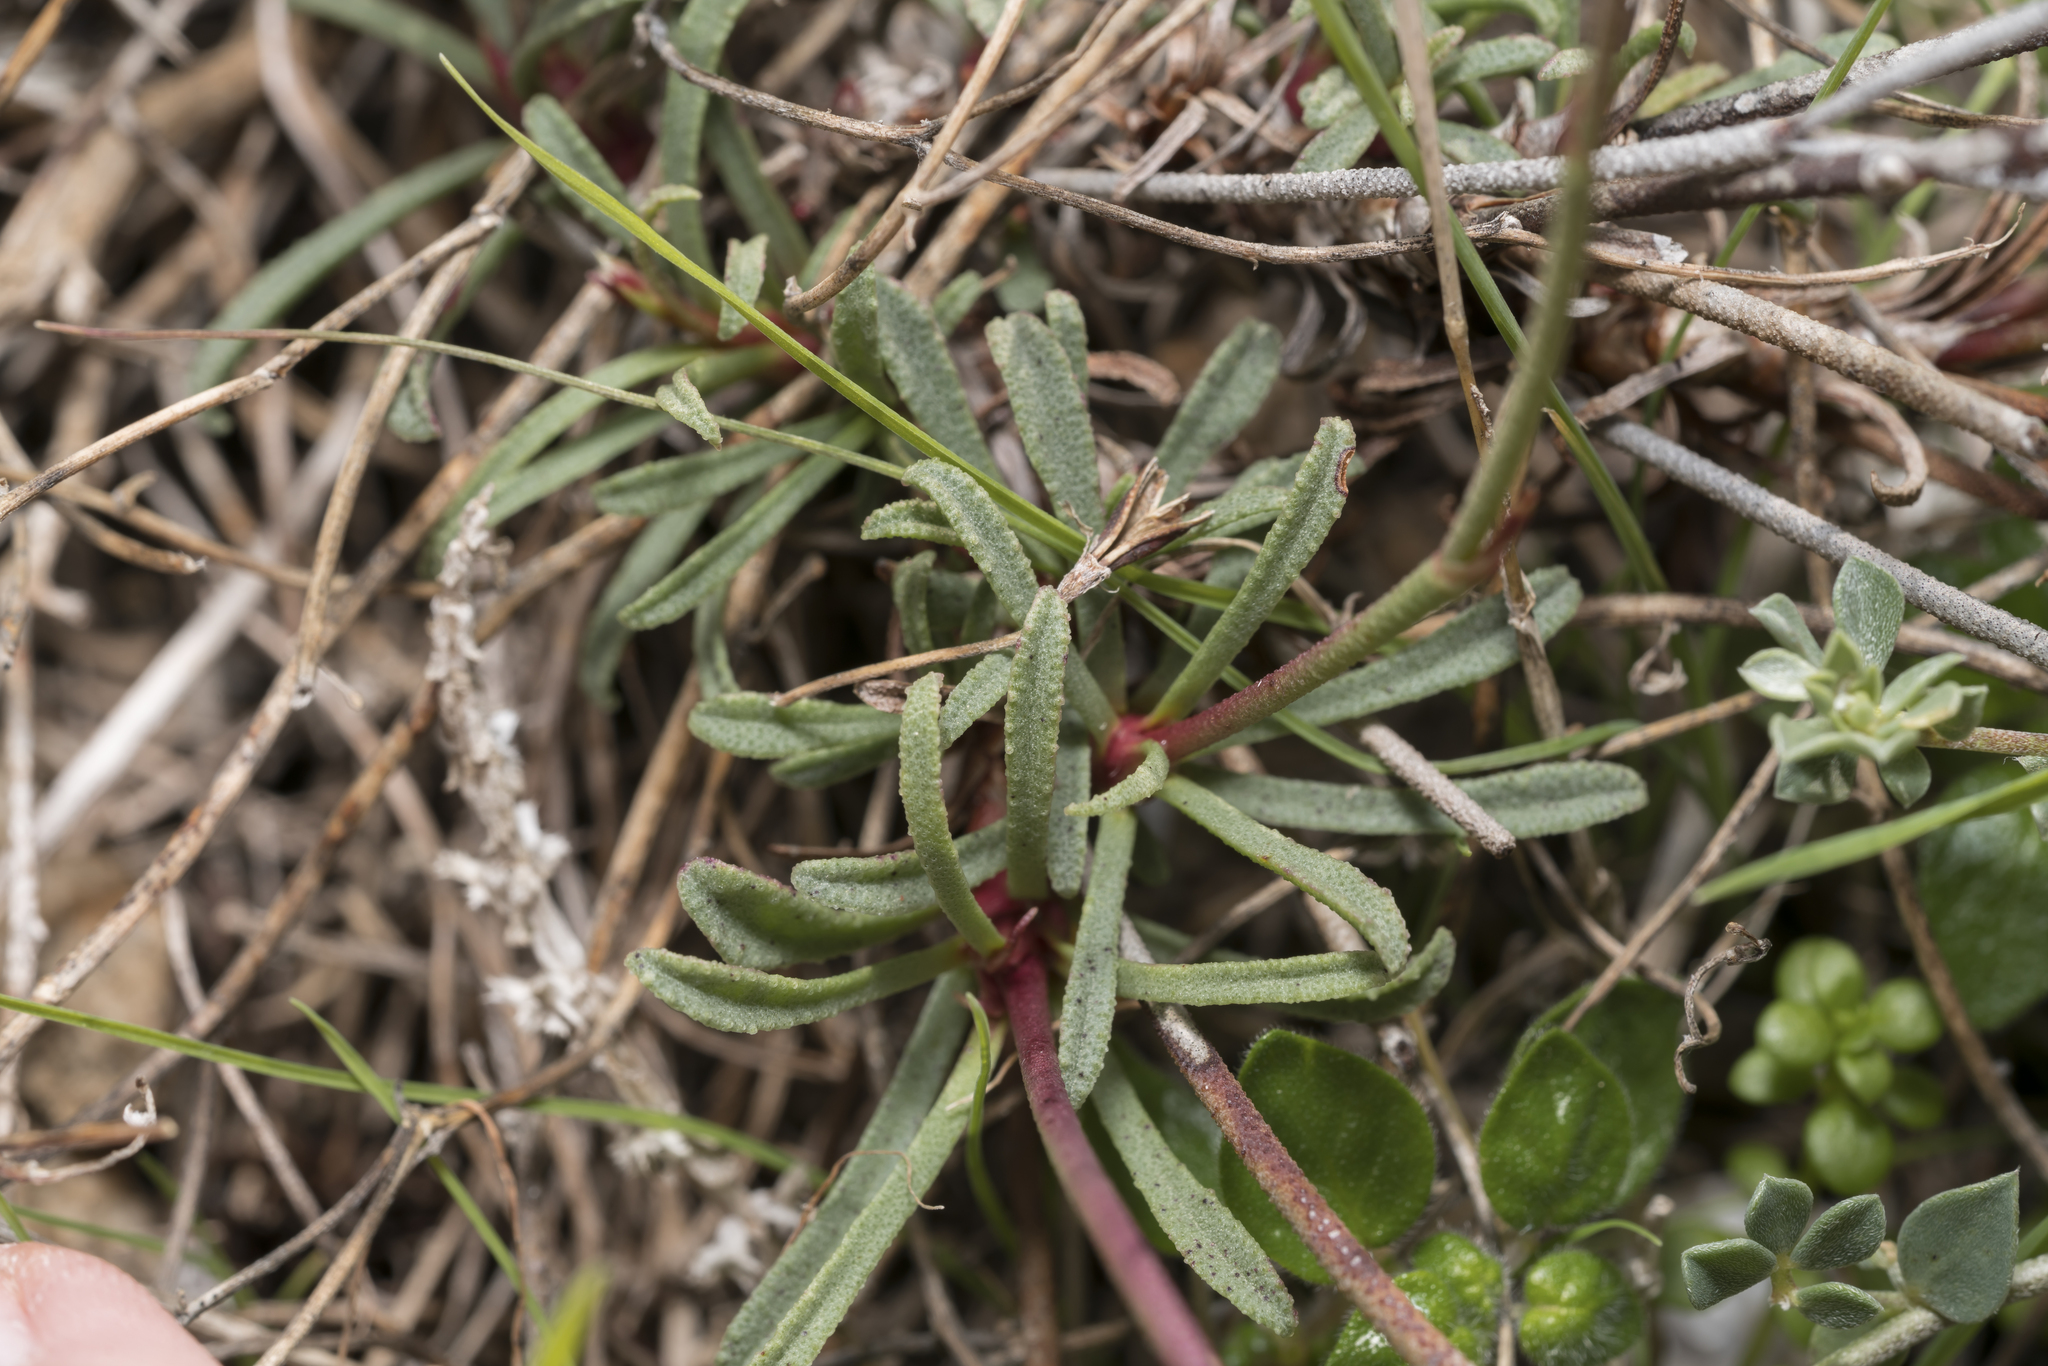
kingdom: Plantae
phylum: Tracheophyta
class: Magnoliopsida
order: Caryophyllales
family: Plumbaginaceae
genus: Limonium
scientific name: Limonium quinnii
